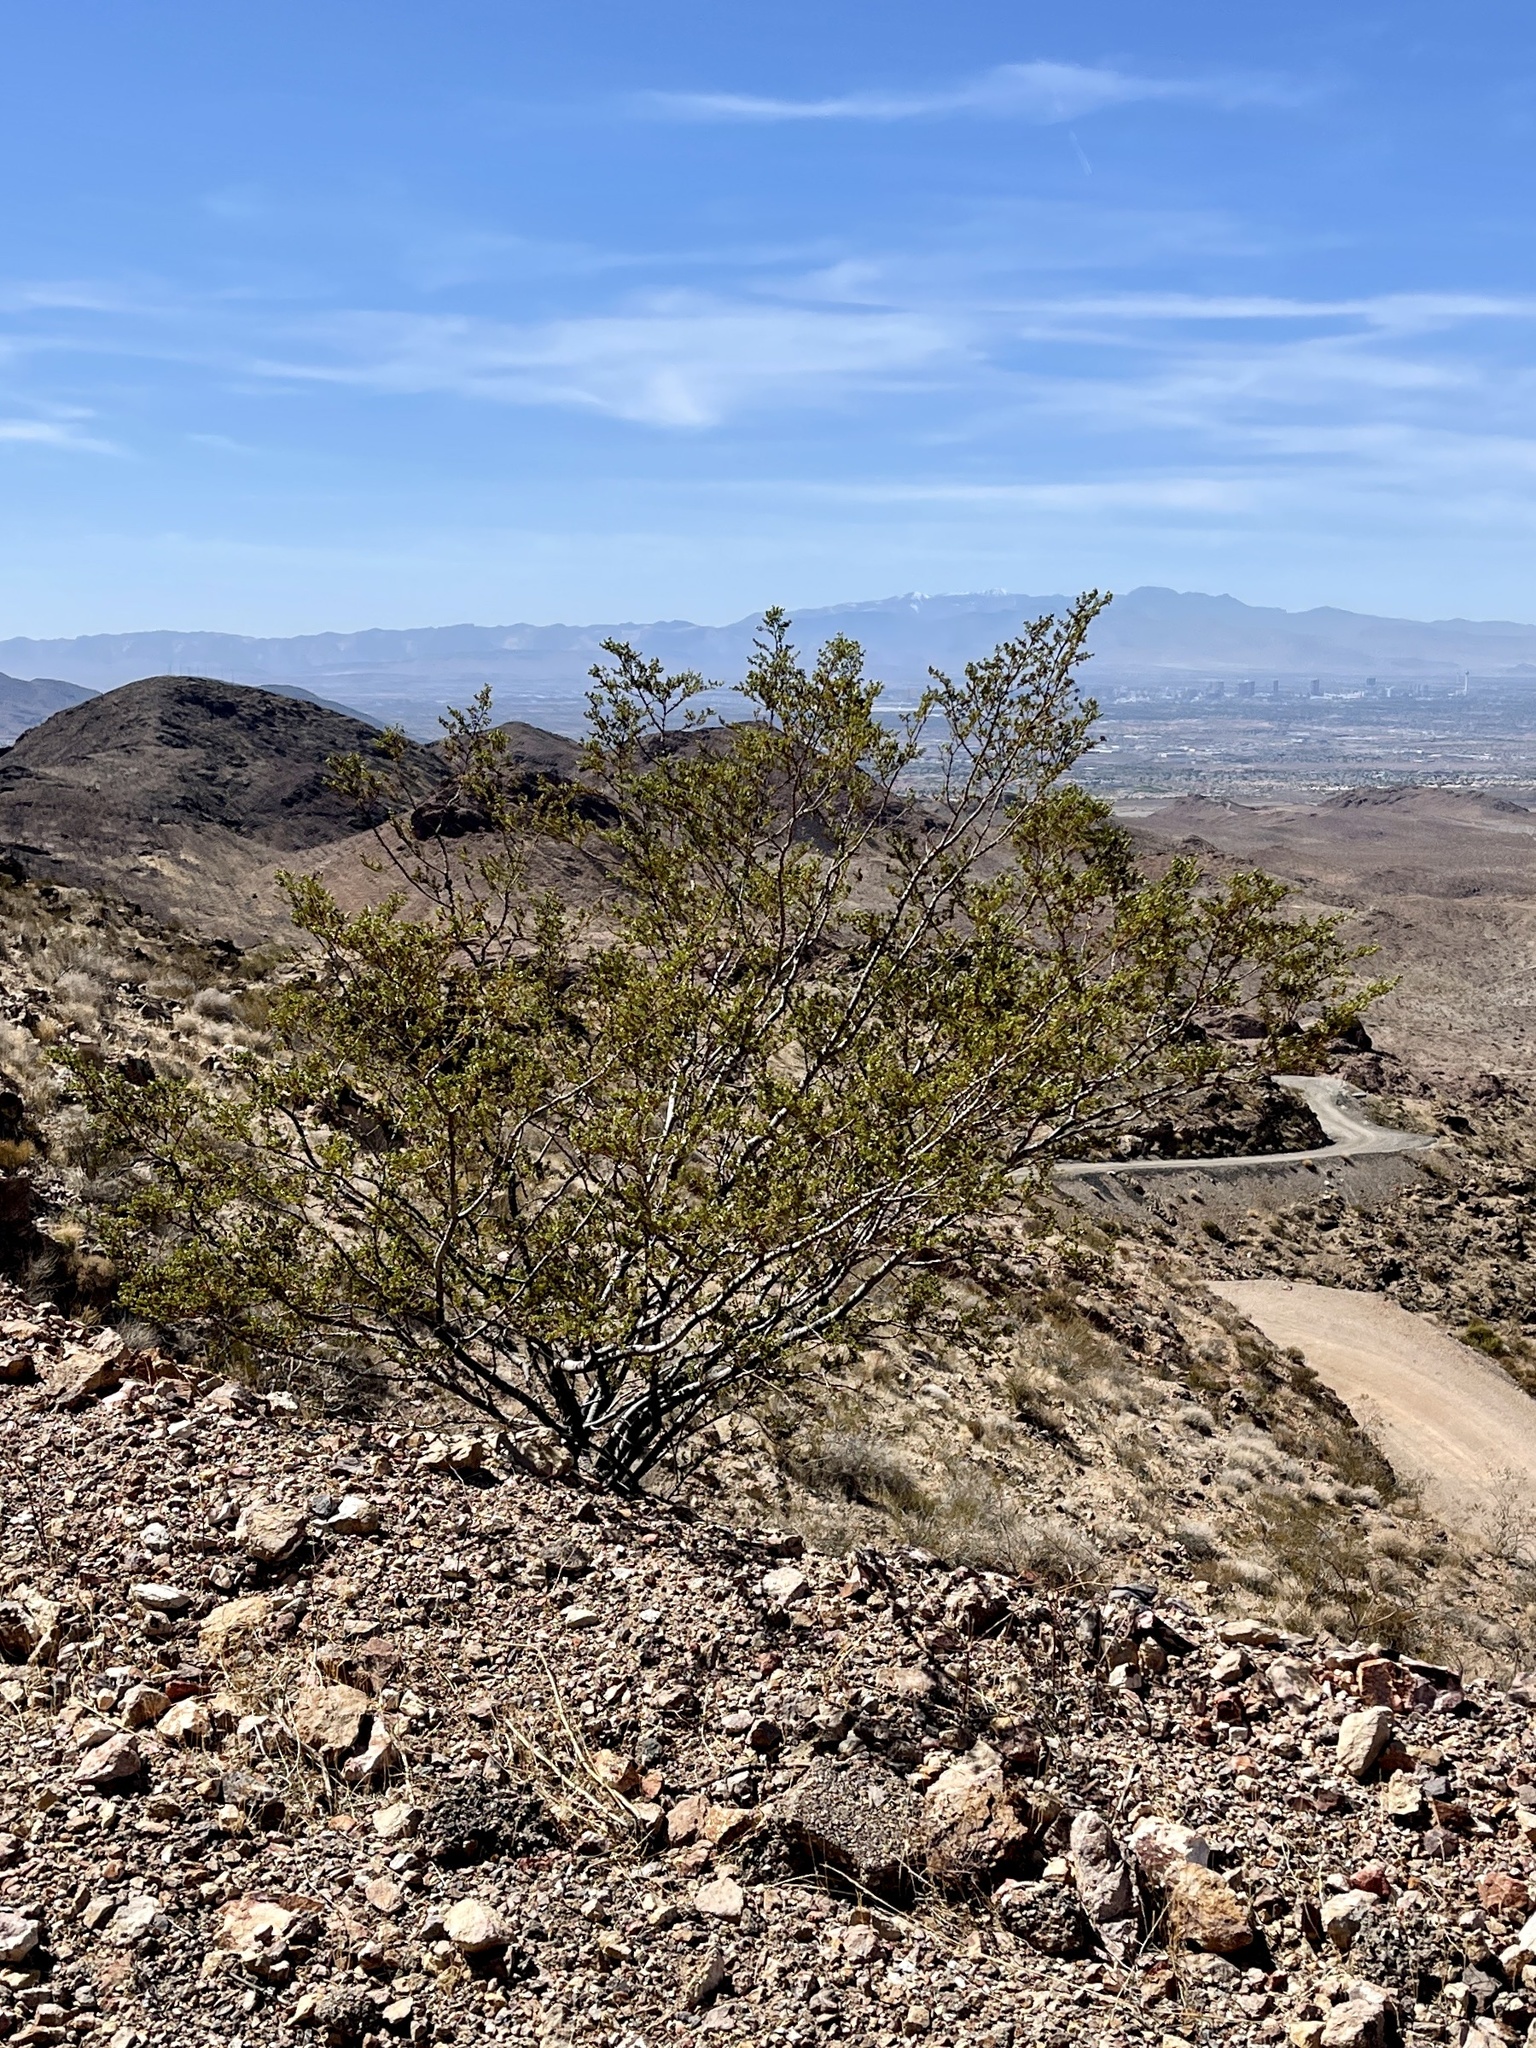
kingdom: Plantae
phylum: Tracheophyta
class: Magnoliopsida
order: Zygophyllales
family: Zygophyllaceae
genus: Larrea
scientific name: Larrea tridentata
